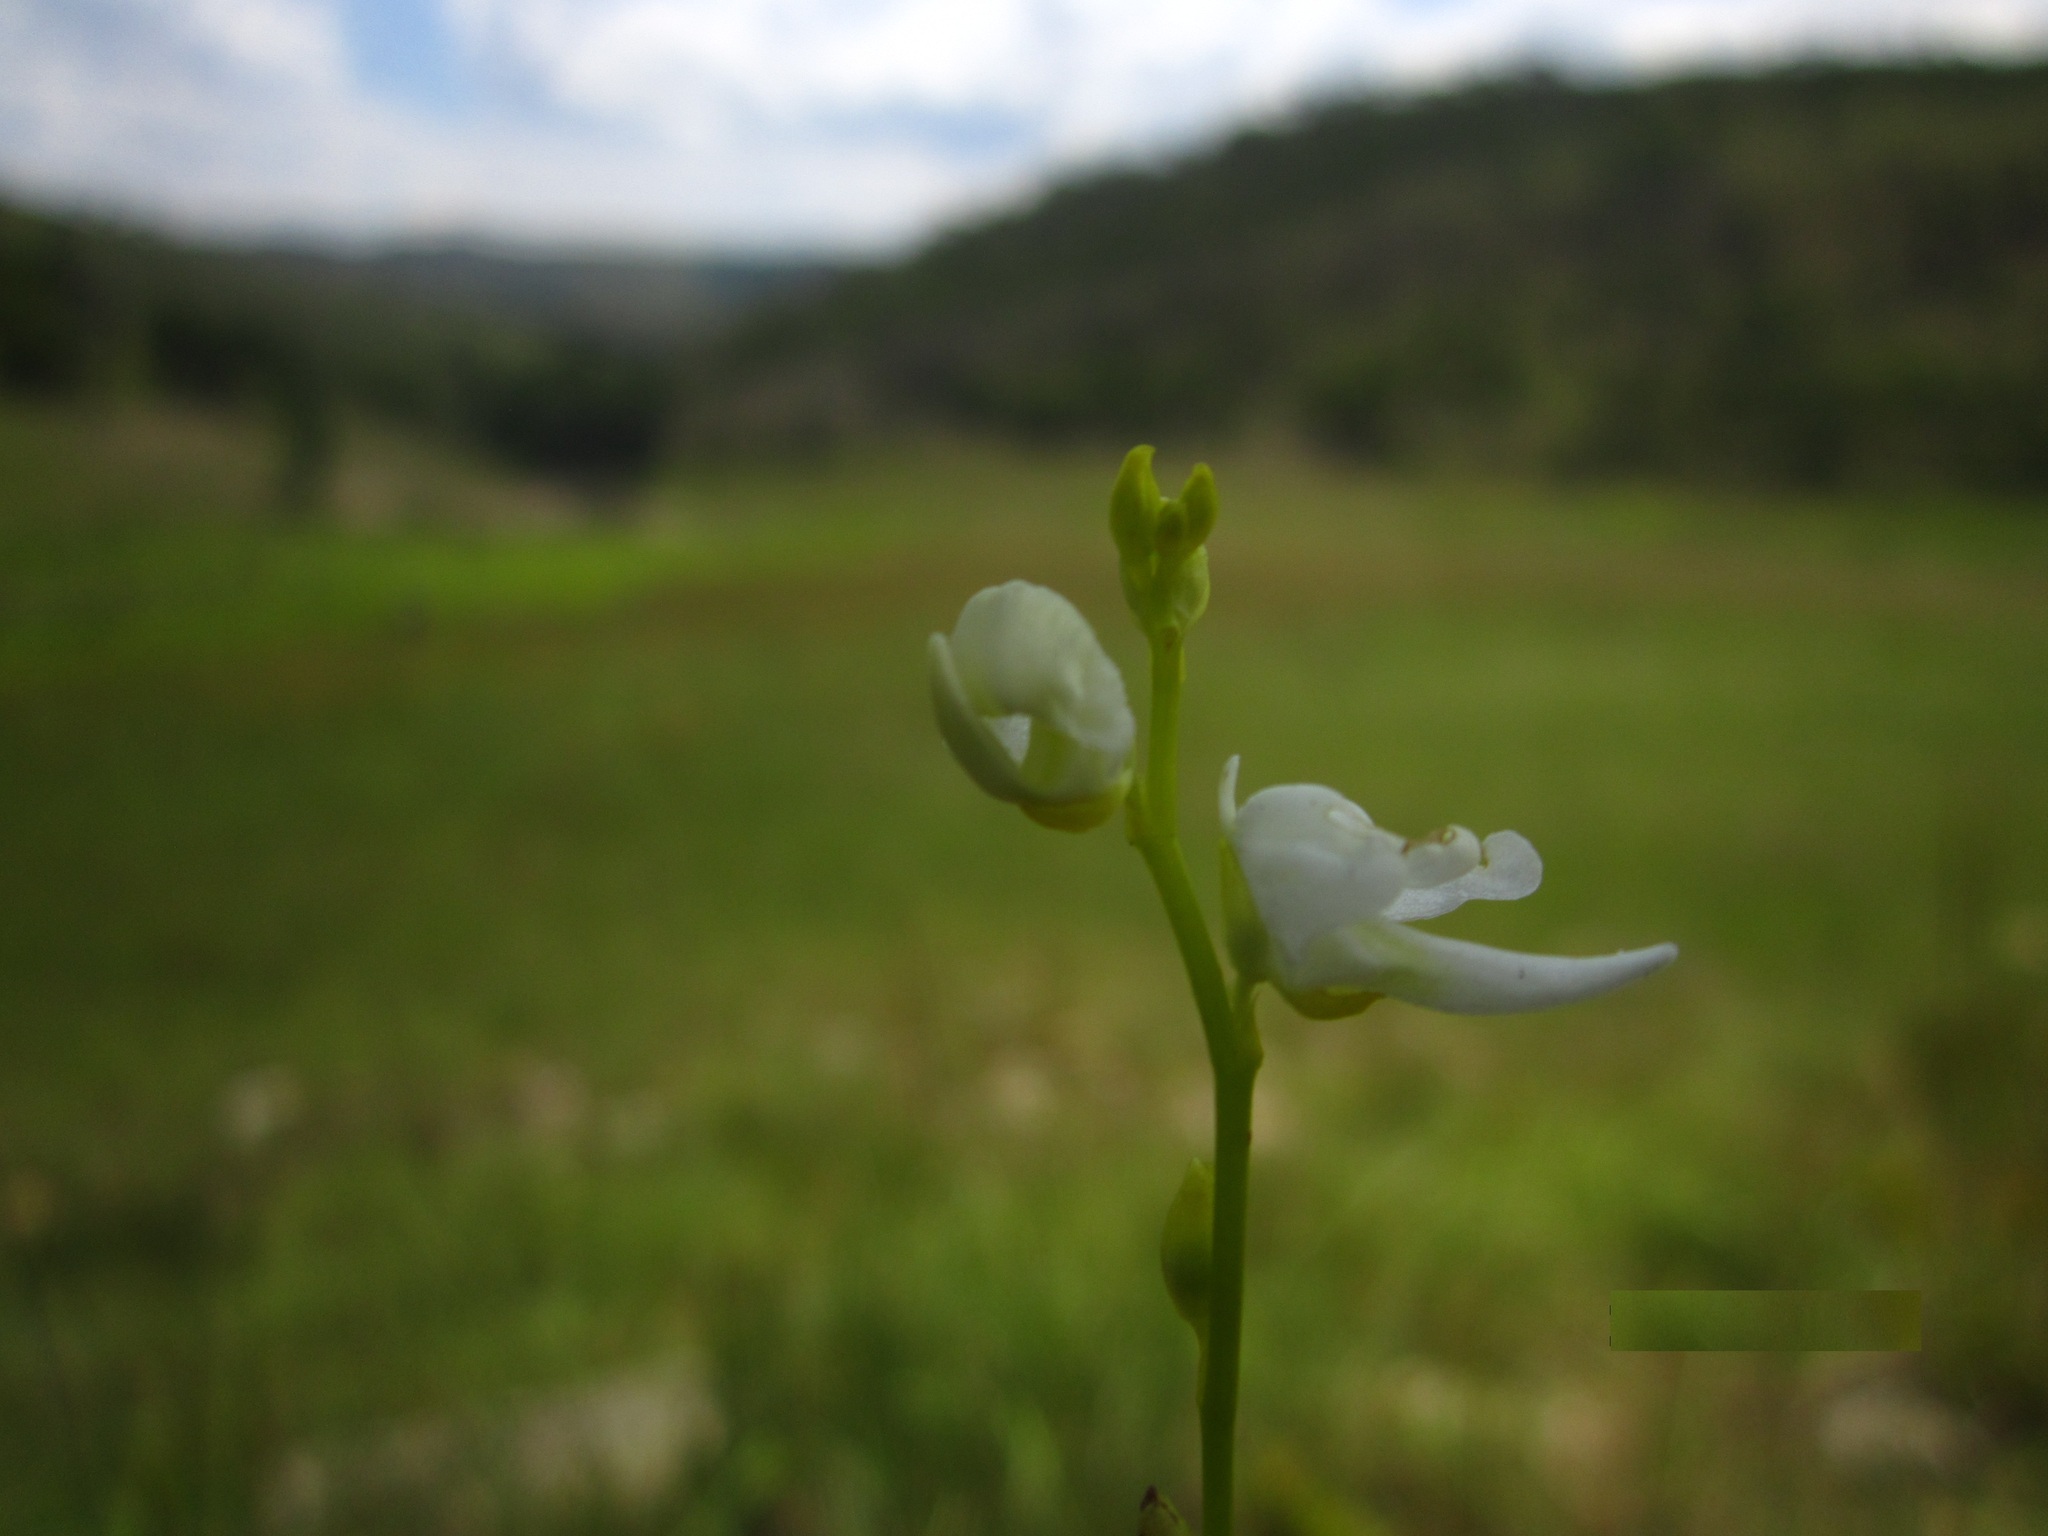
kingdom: Plantae
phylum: Tracheophyta
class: Magnoliopsida
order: Lamiales
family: Lentibulariaceae
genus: Utricularia
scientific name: Utricularia livida
